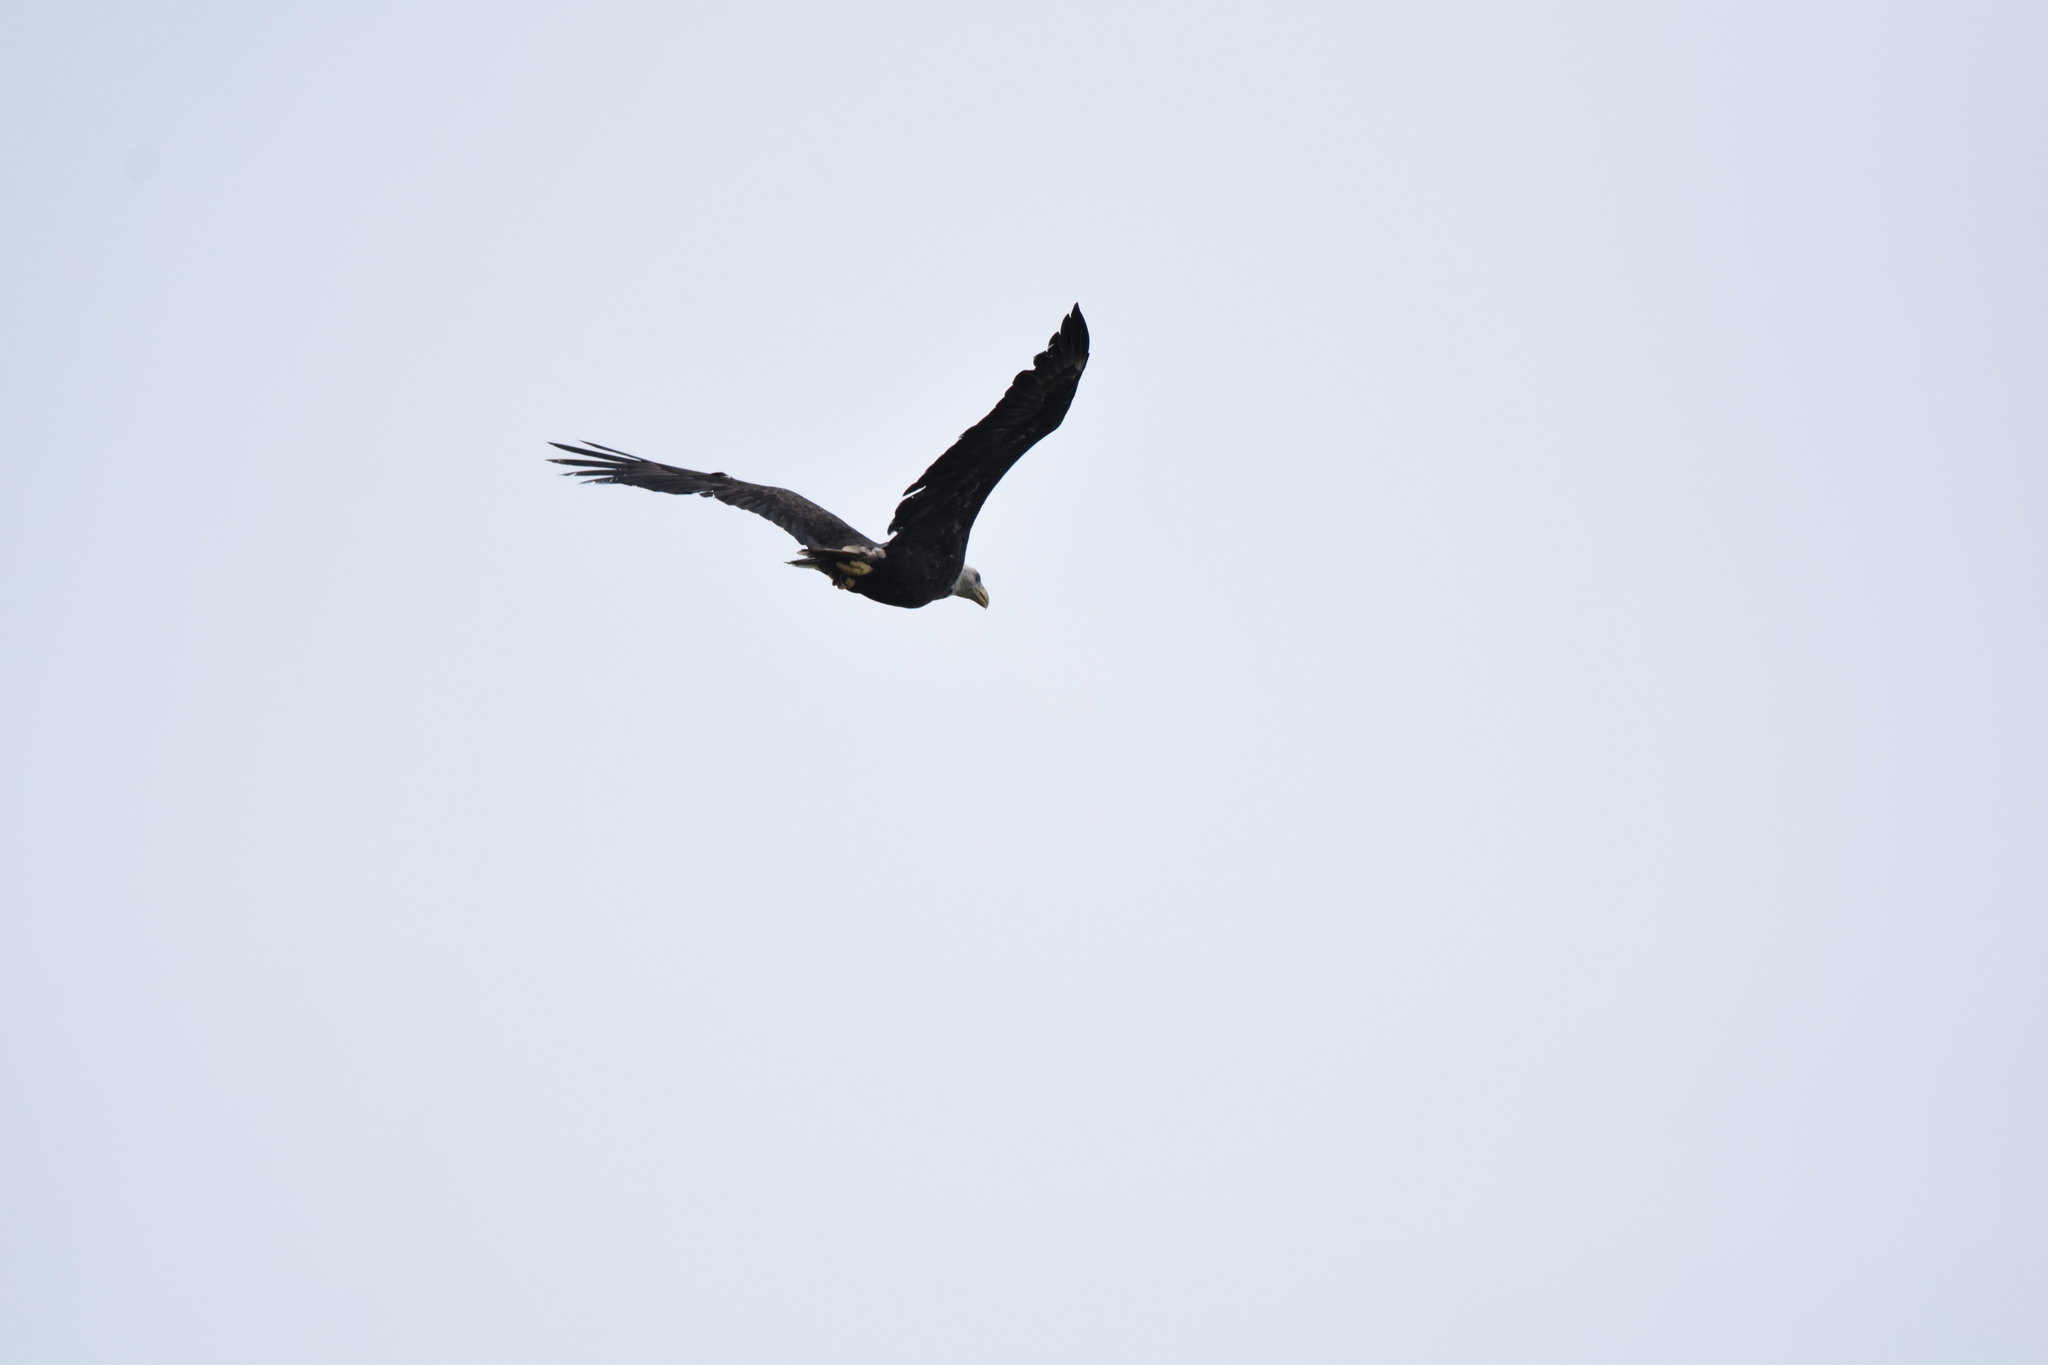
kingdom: Animalia
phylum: Chordata
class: Aves
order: Accipitriformes
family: Accipitridae
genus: Haliaeetus
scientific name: Haliaeetus leucocephalus
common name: Bald eagle
